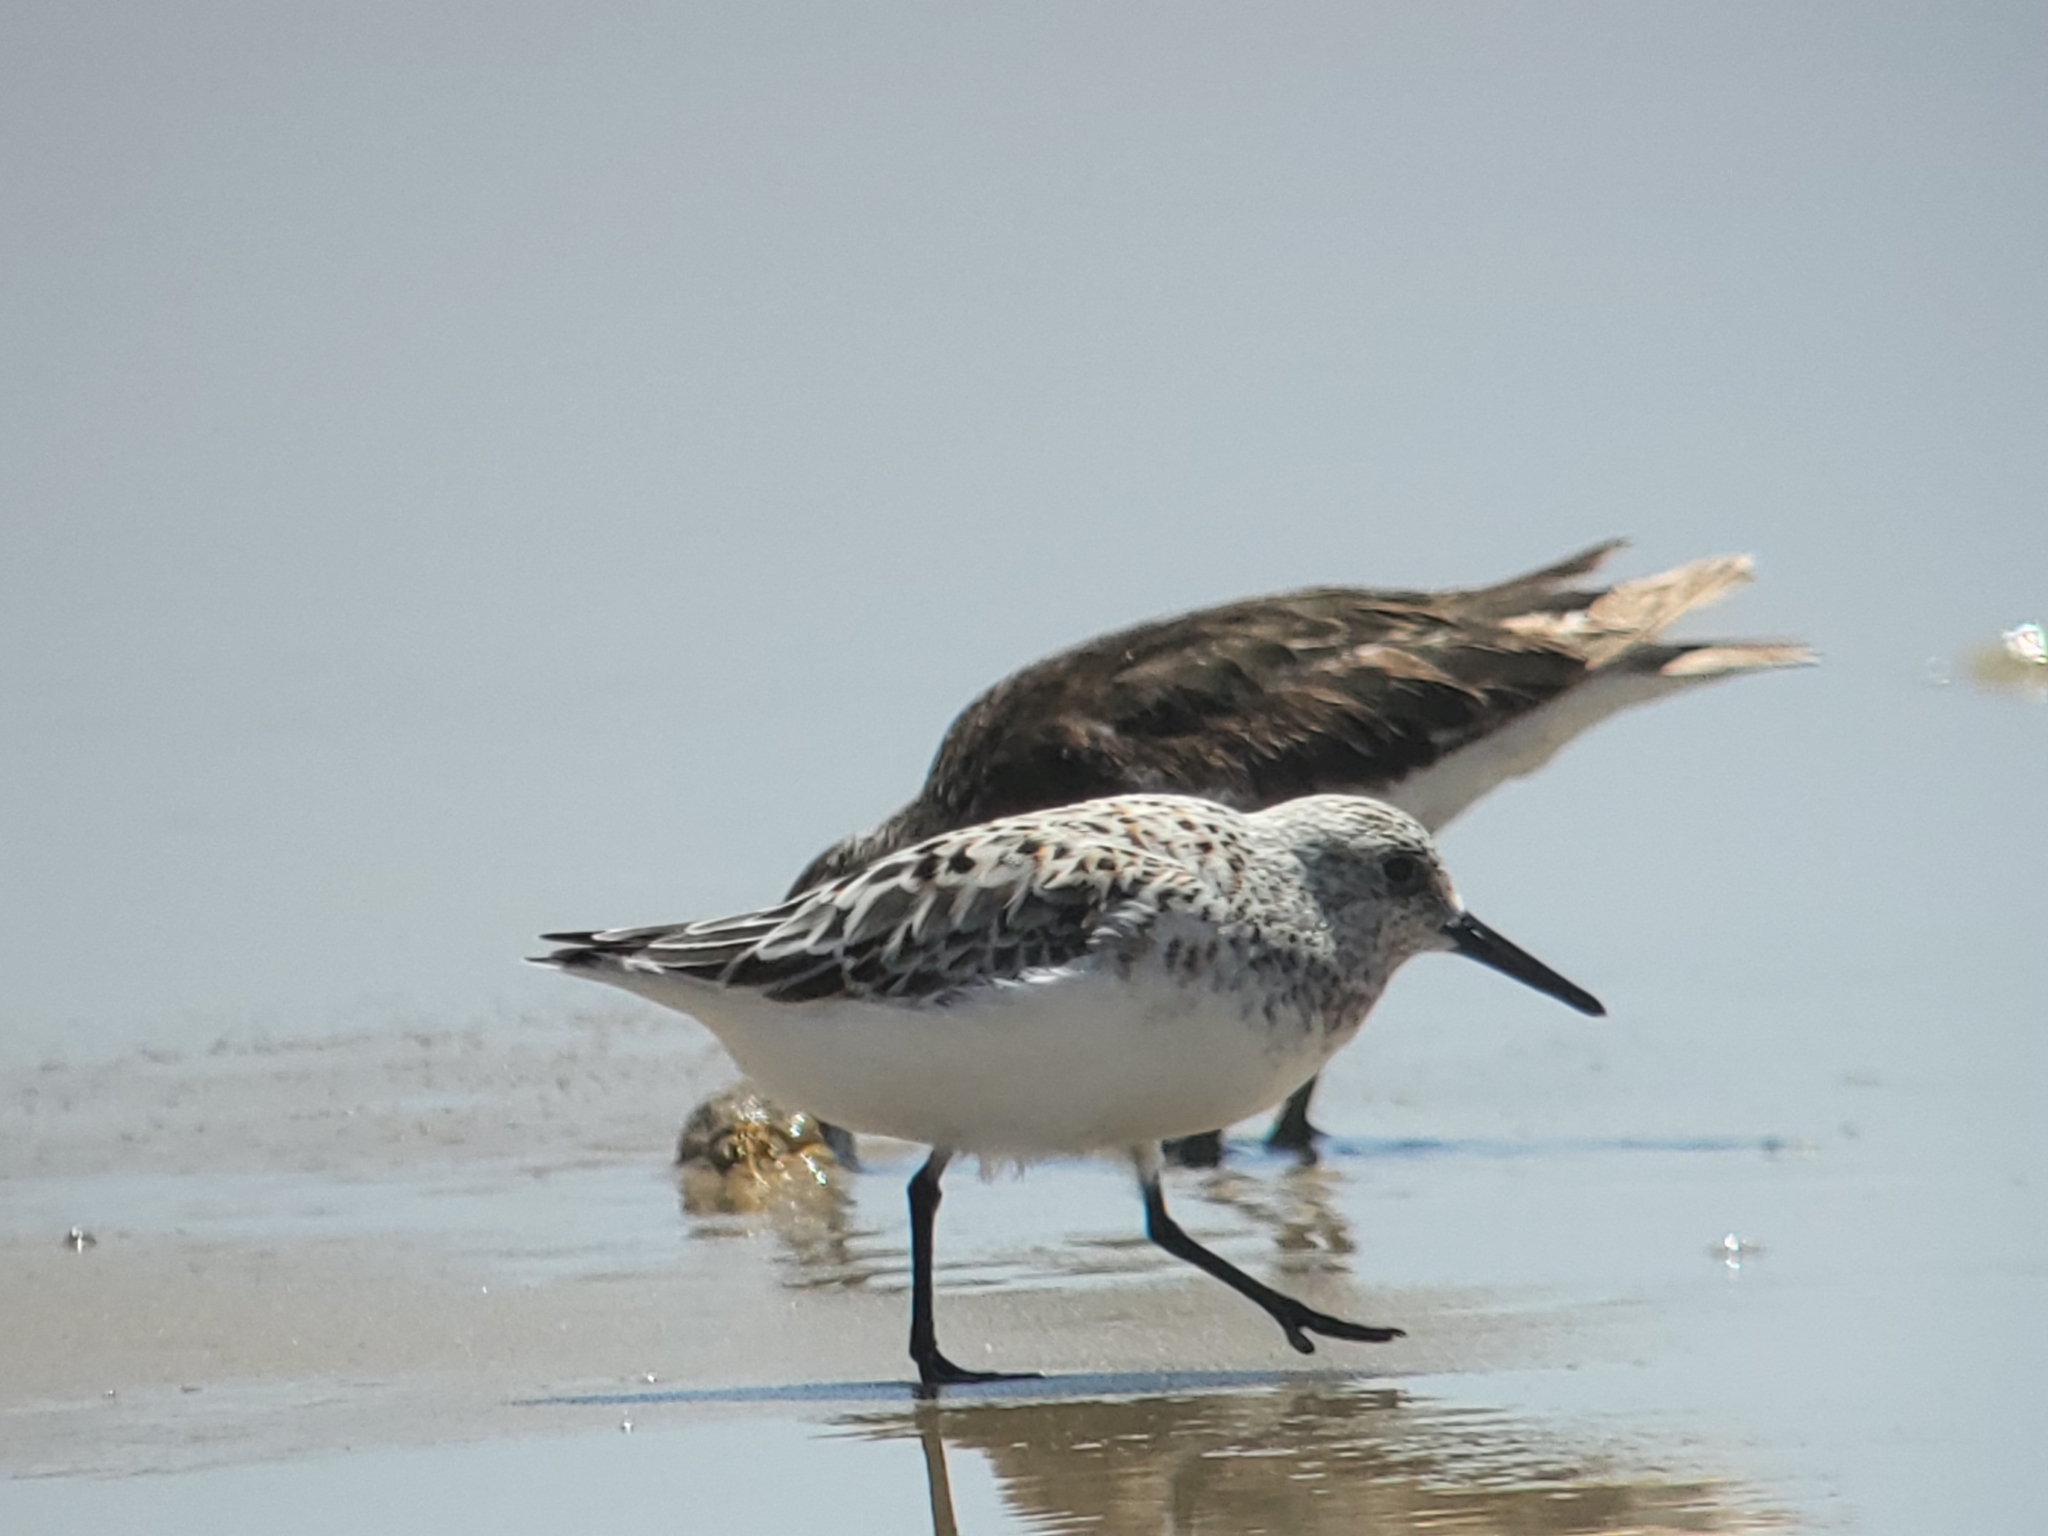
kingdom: Animalia
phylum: Chordata
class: Aves
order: Charadriiformes
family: Scolopacidae
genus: Calidris
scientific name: Calidris alba
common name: Sanderling
